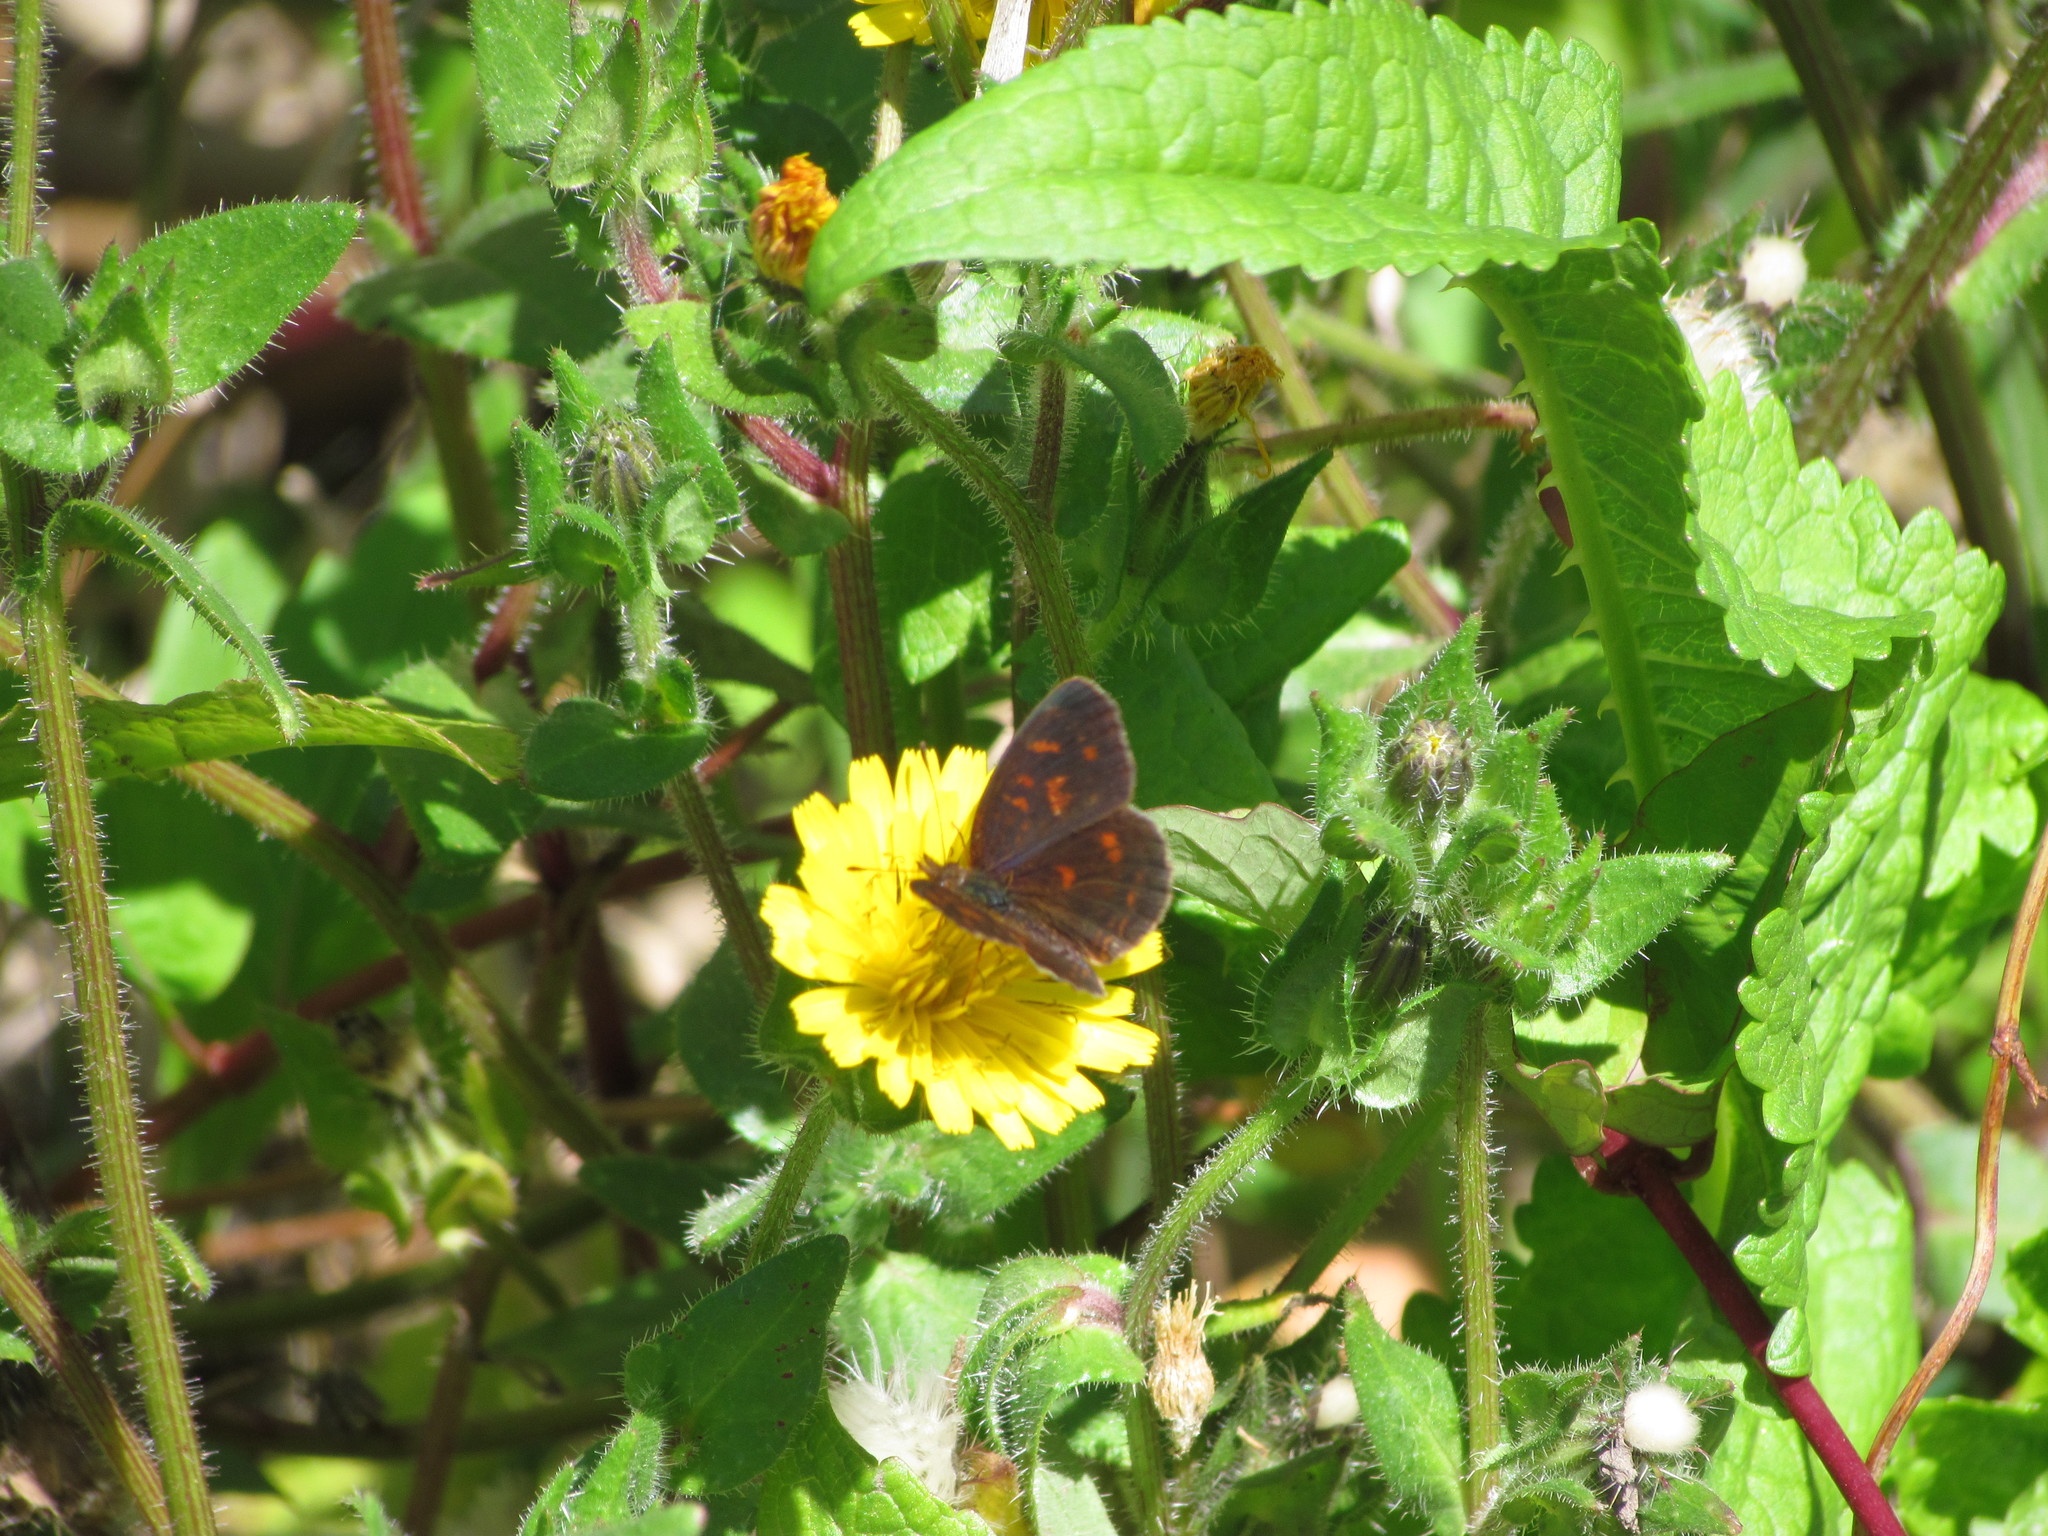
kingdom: Animalia
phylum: Arthropoda
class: Insecta
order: Lepidoptera
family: Nymphalidae
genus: Ortilia
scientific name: Ortilia velica
